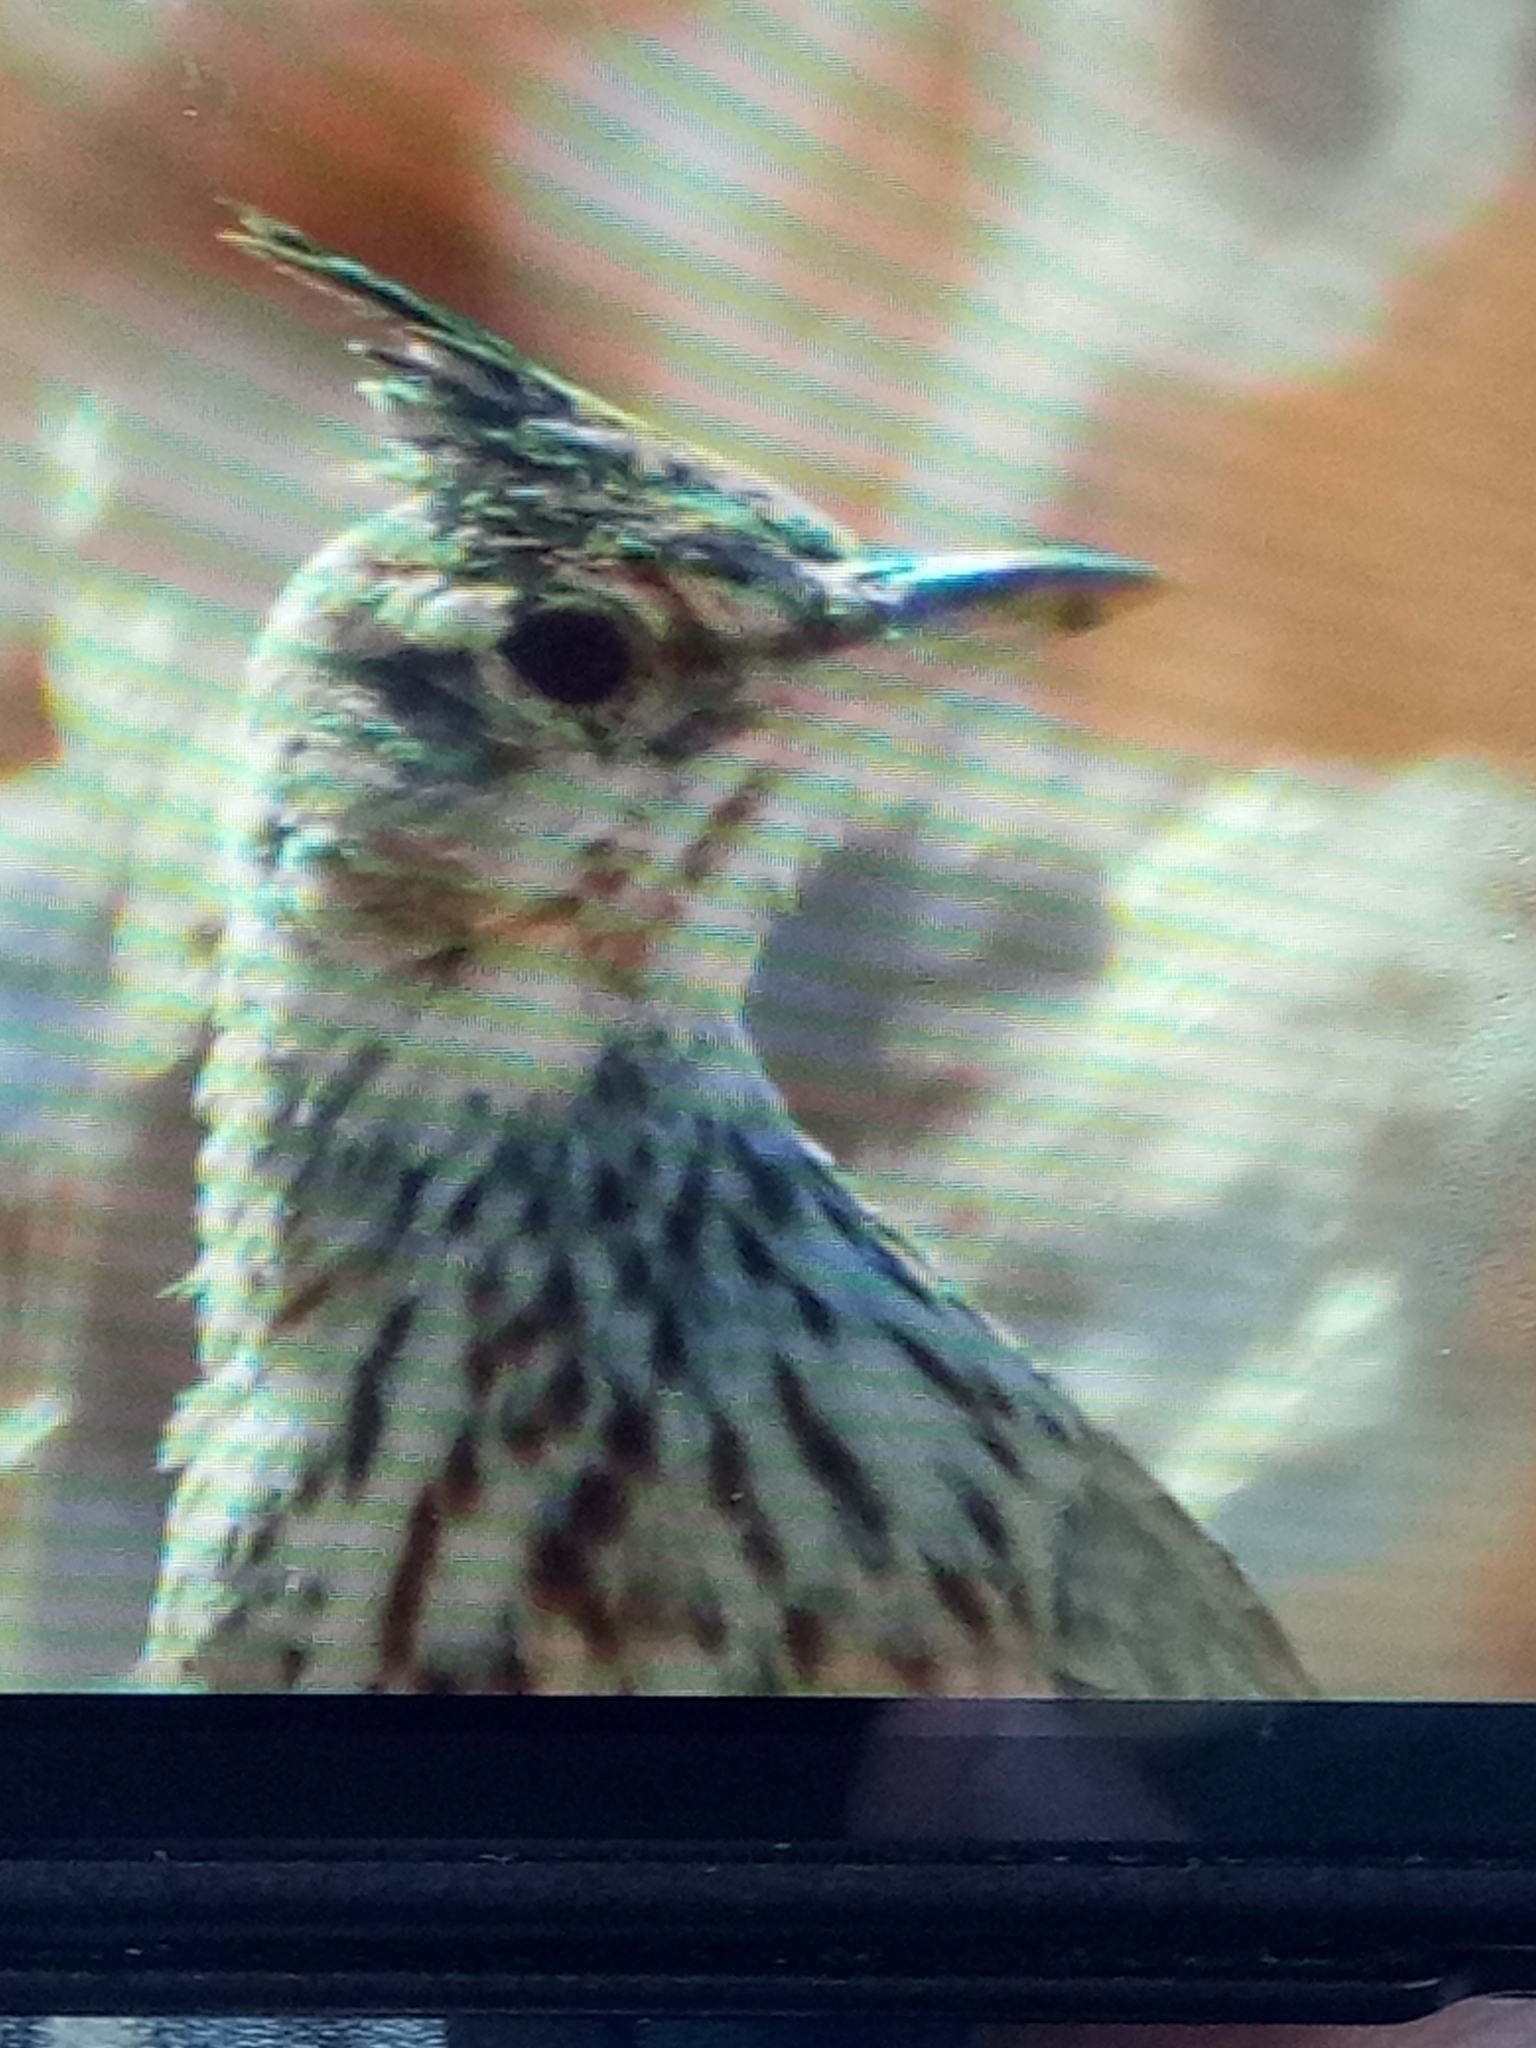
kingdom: Animalia
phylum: Chordata
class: Aves
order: Passeriformes
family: Alaudidae
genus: Galerida
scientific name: Galerida cristata
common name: Crested lark
